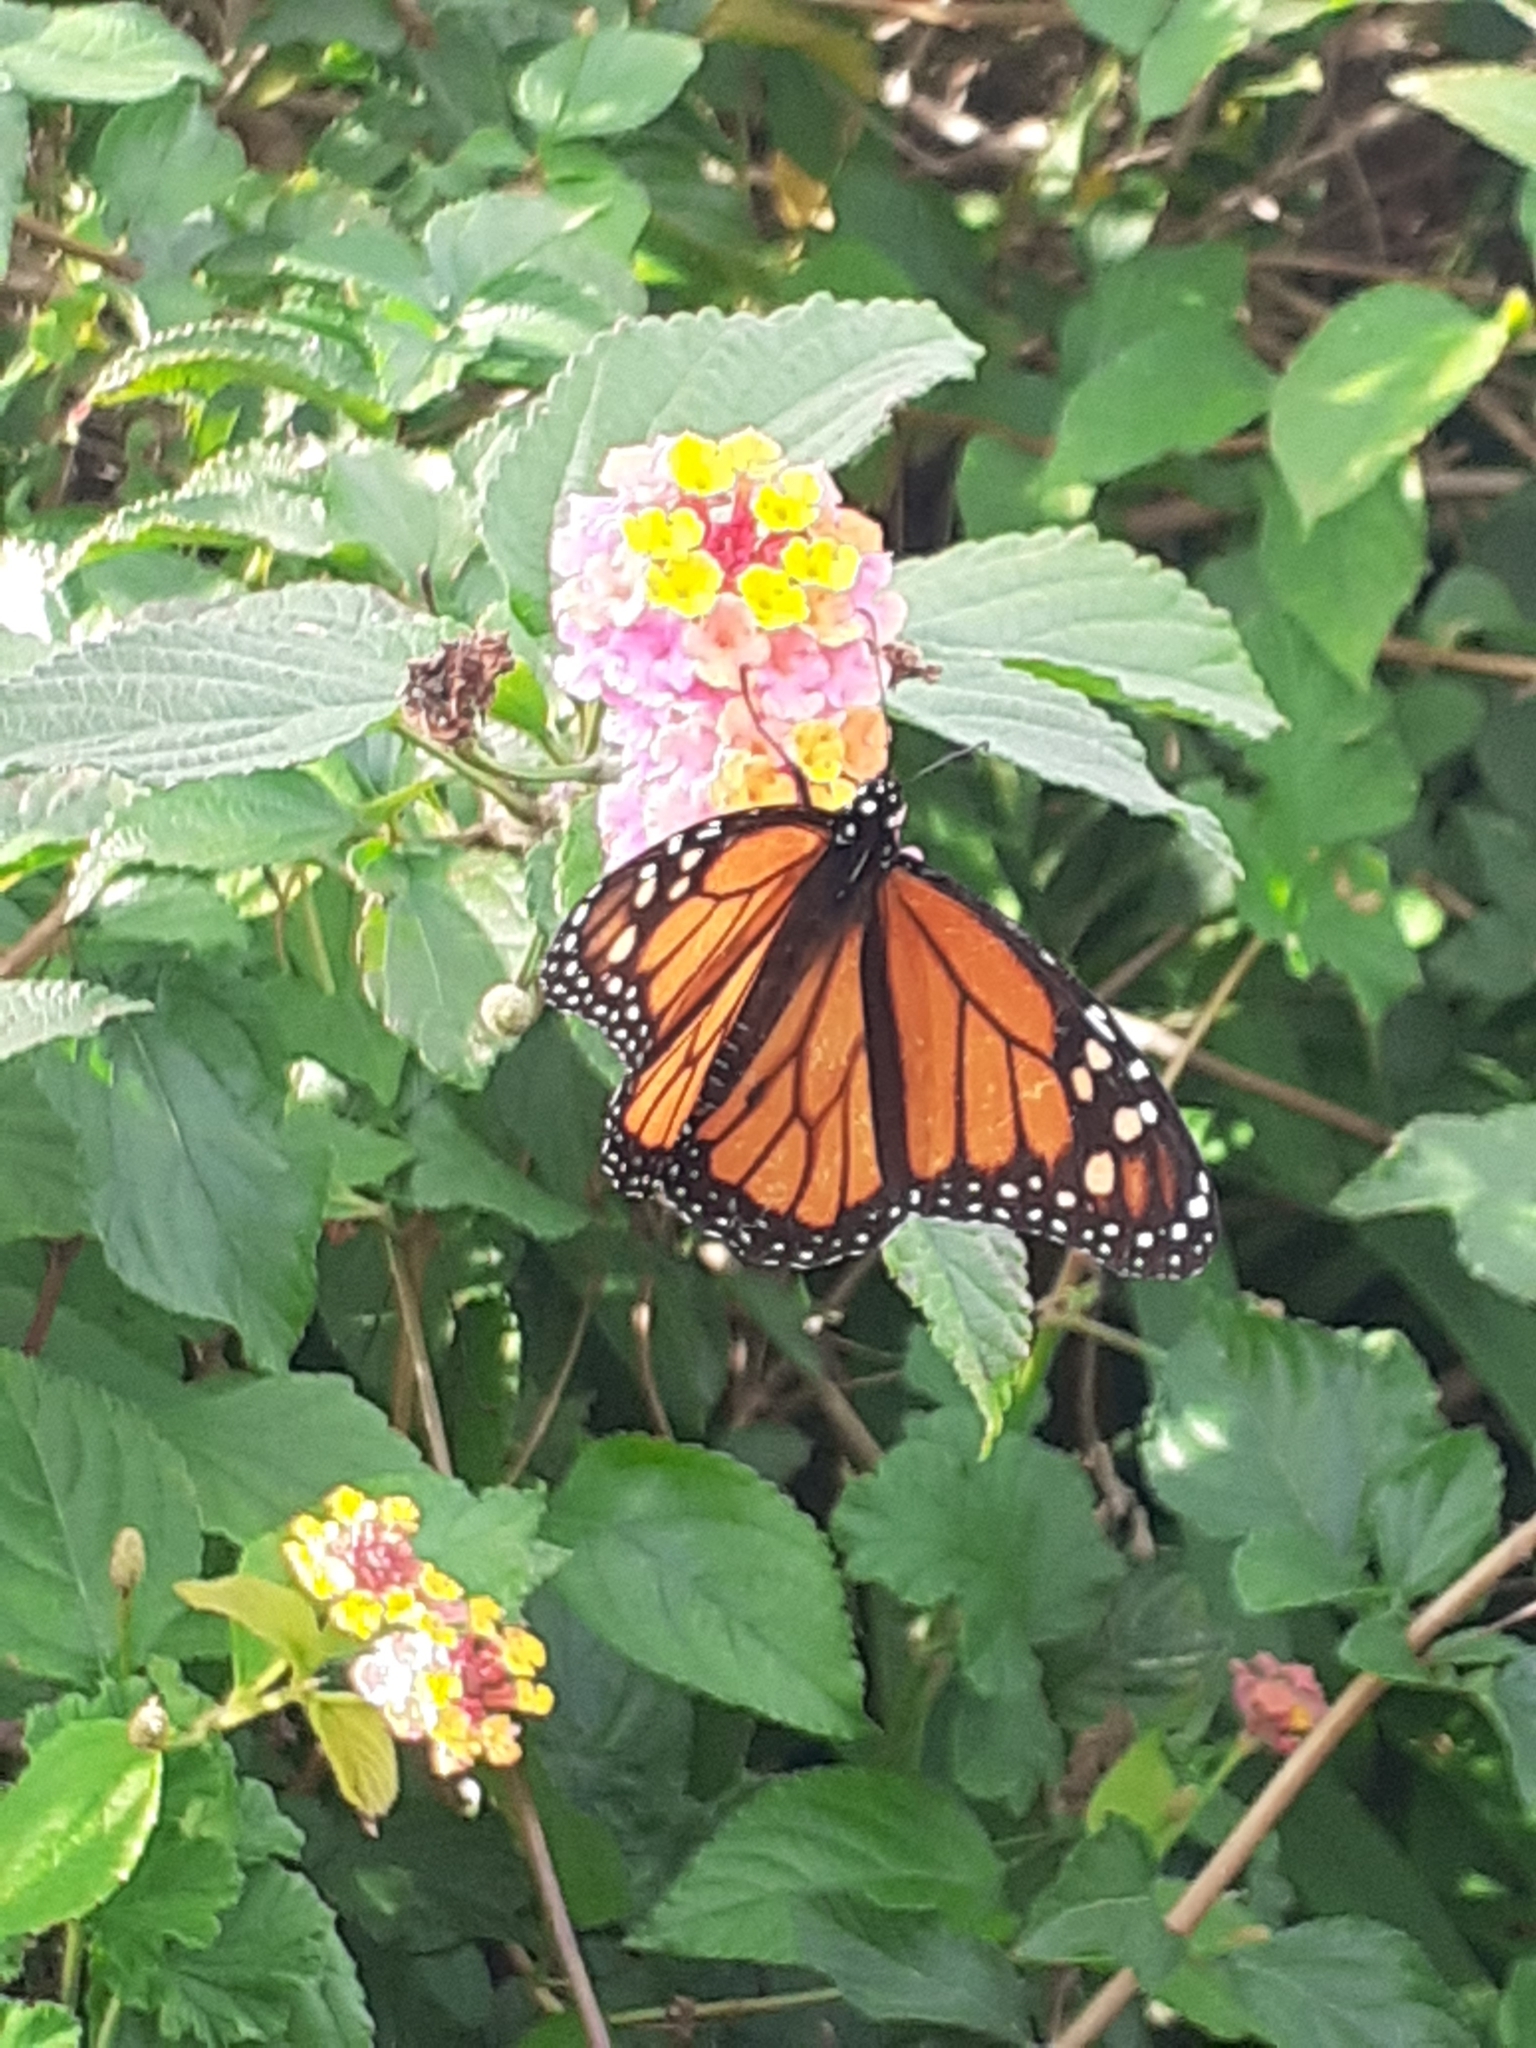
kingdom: Animalia
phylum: Arthropoda
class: Insecta
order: Lepidoptera
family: Nymphalidae
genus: Danaus
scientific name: Danaus plexippus
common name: Monarch
